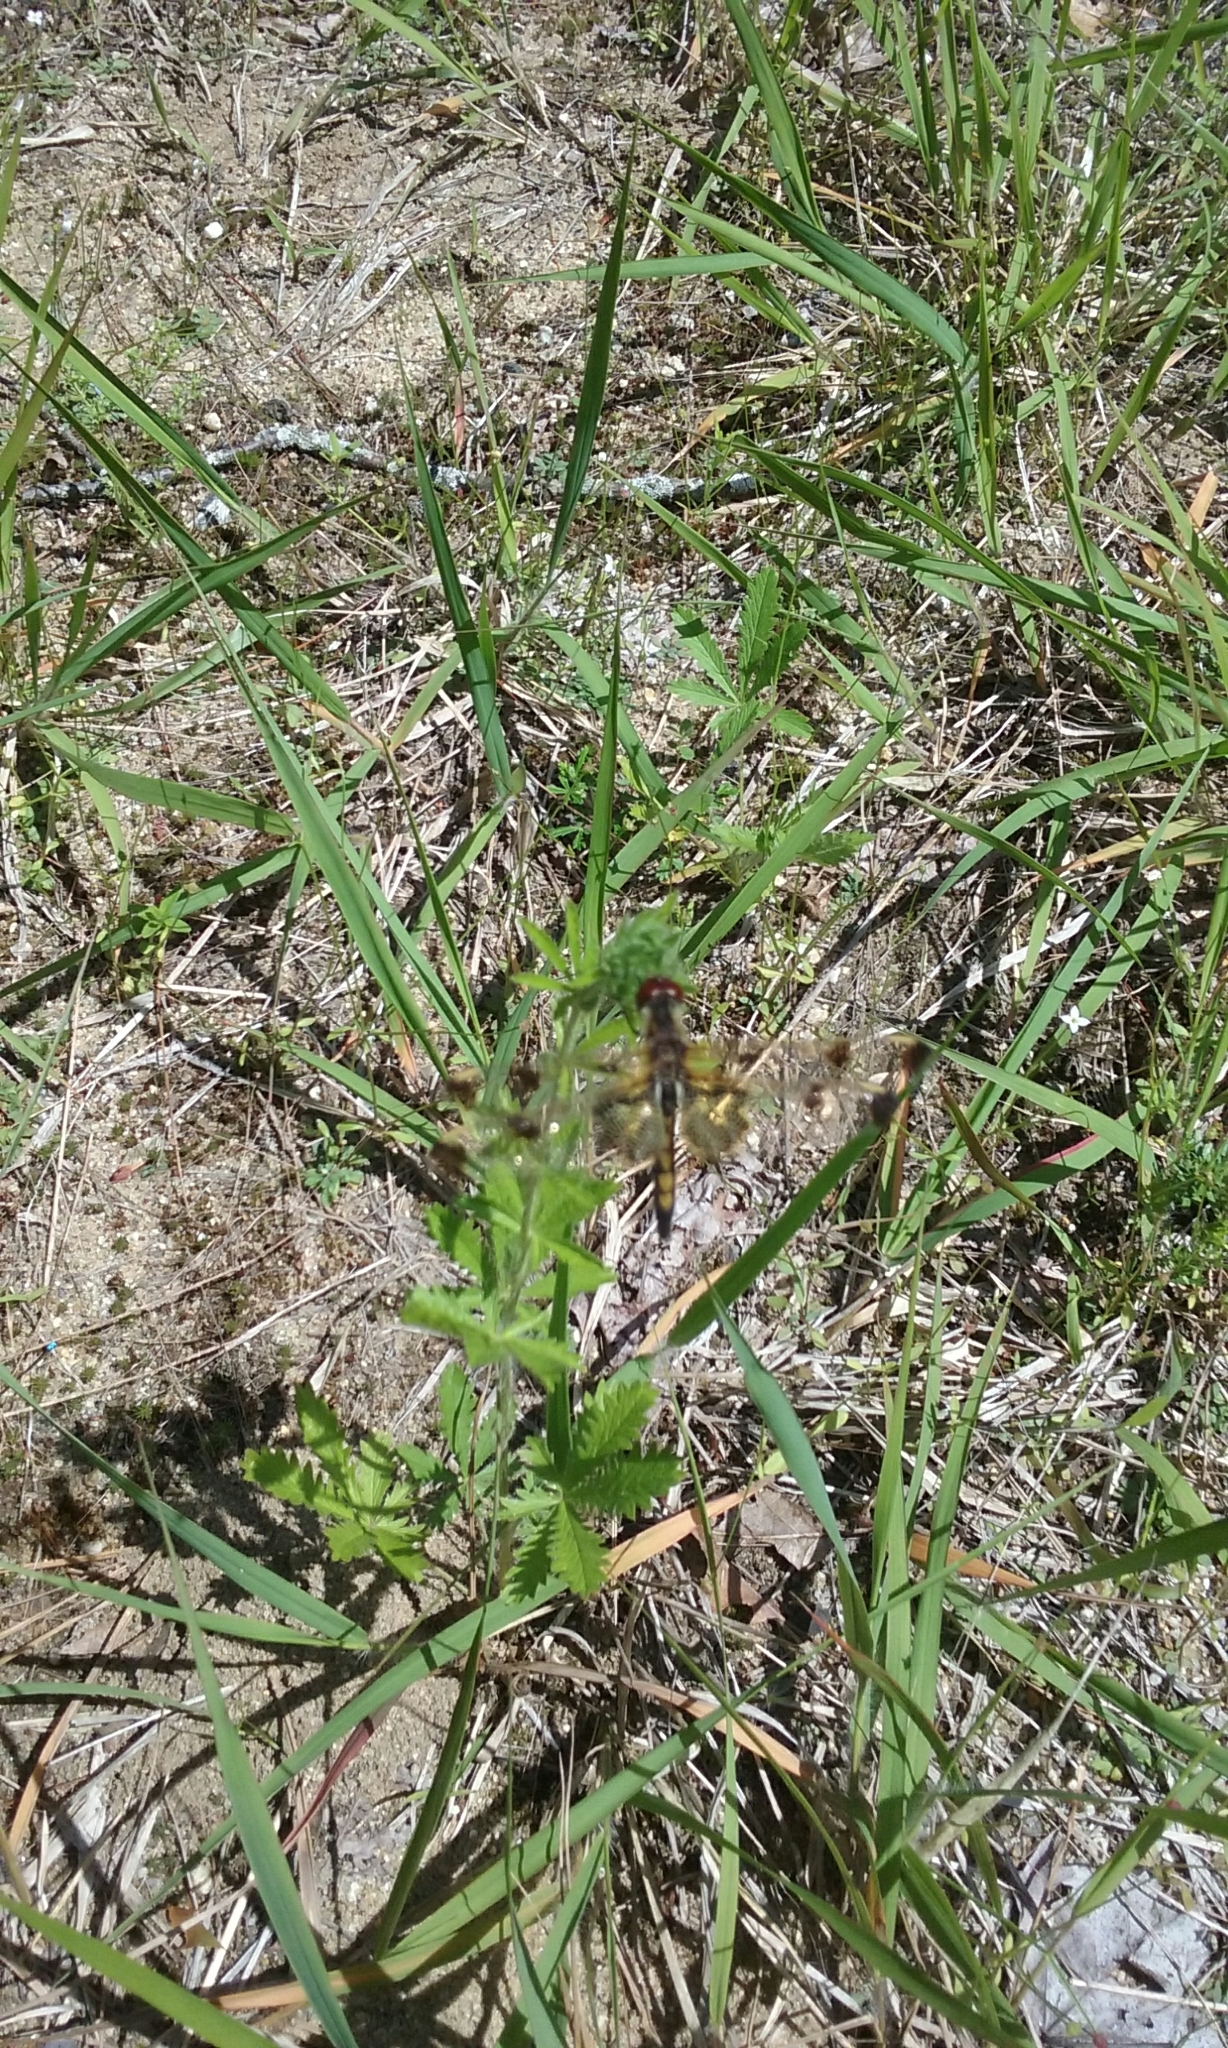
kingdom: Animalia
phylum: Arthropoda
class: Insecta
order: Odonata
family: Libellulidae
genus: Celithemis
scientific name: Celithemis elisa
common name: Calico pennant
